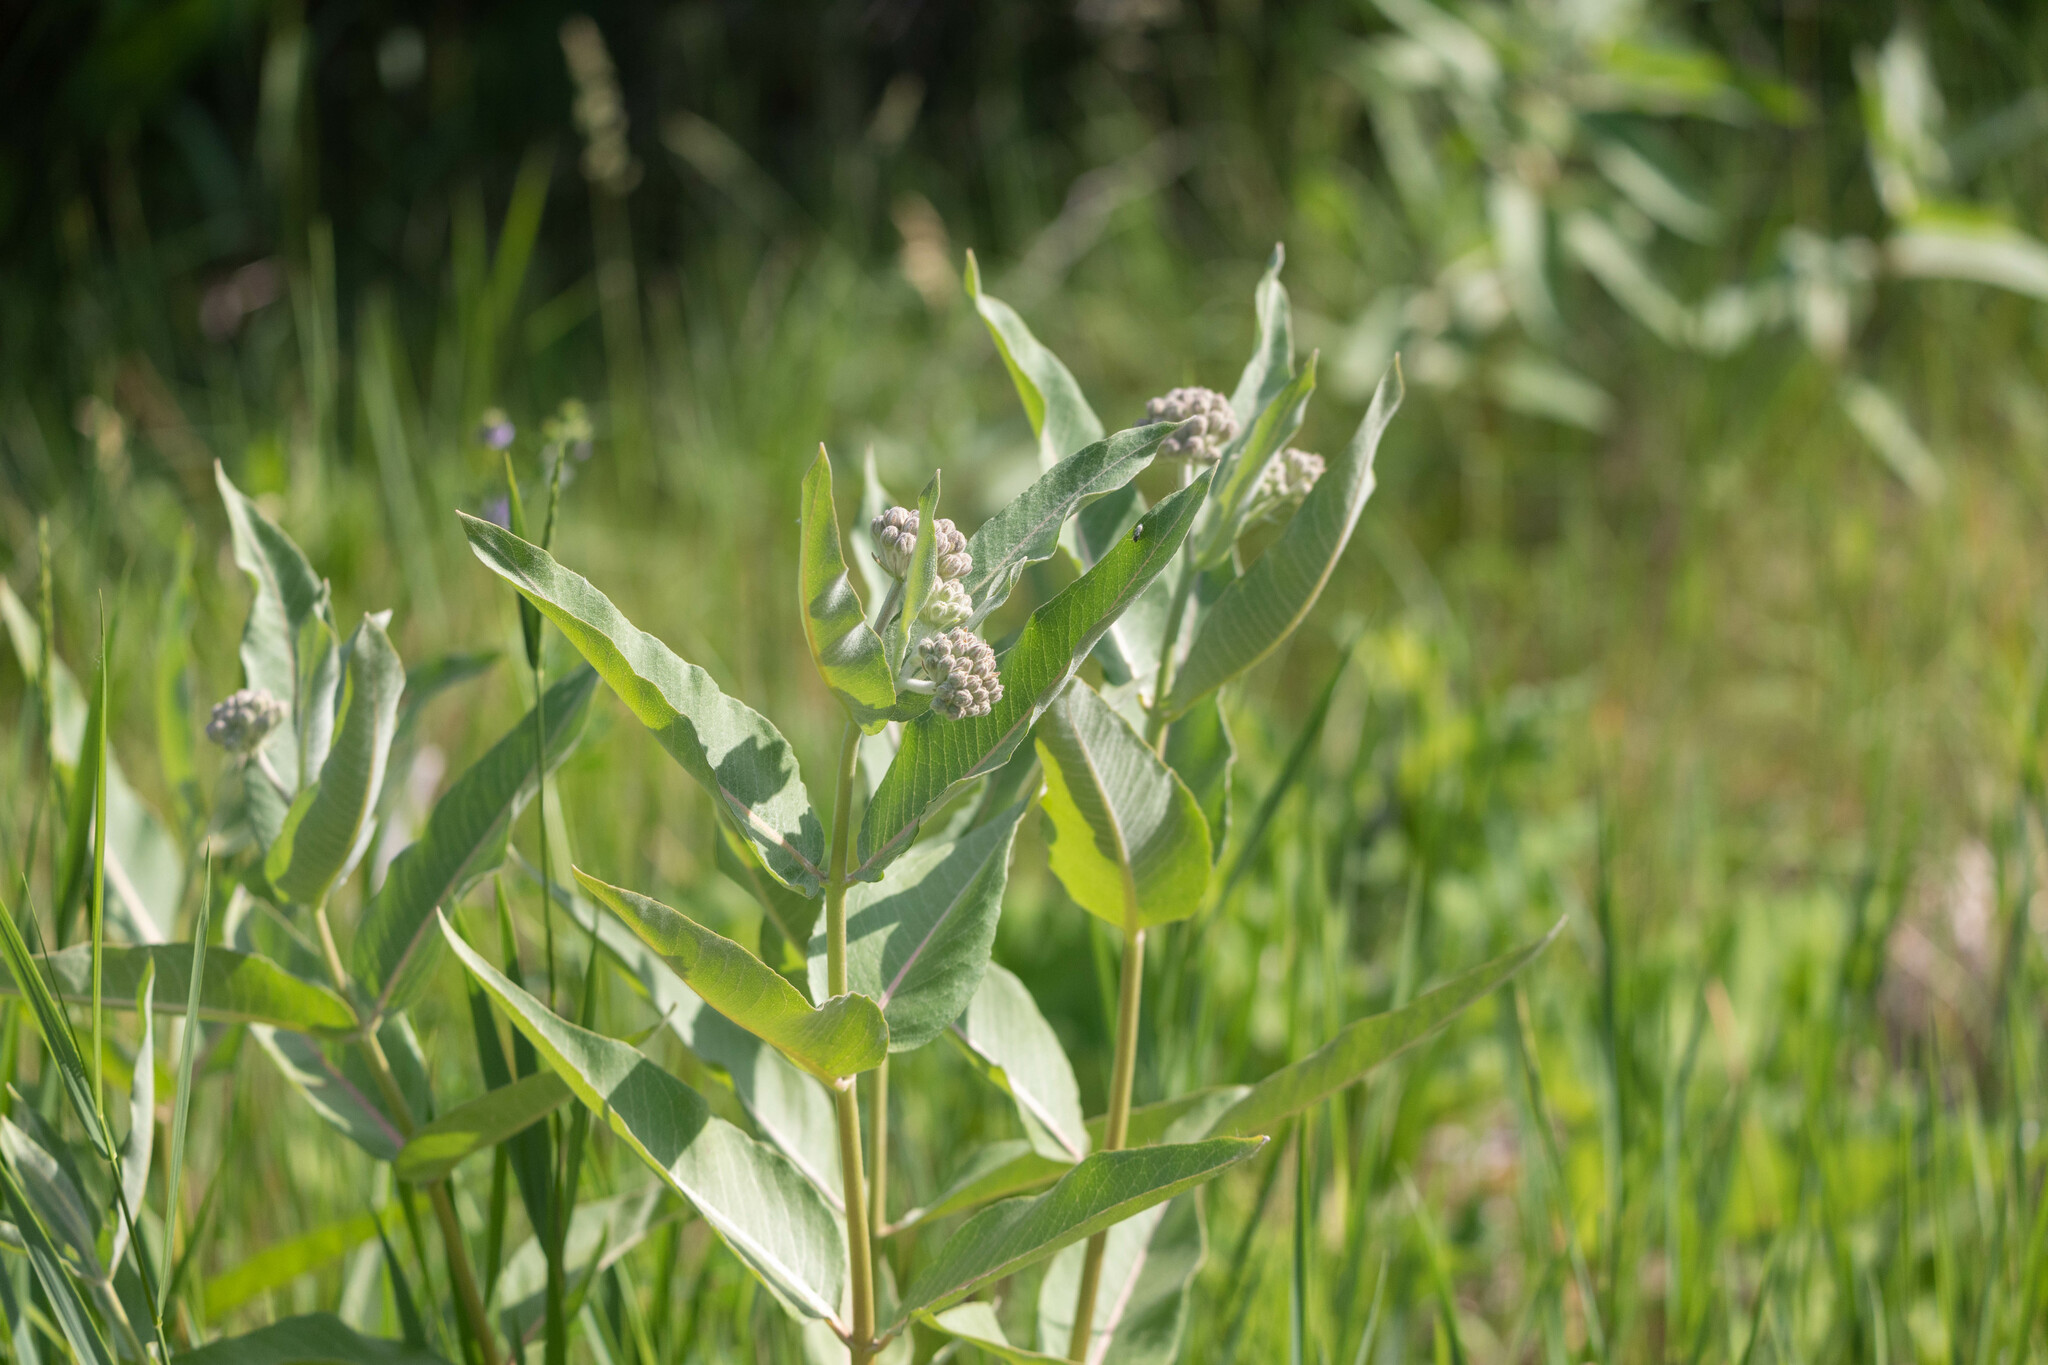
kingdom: Plantae
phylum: Tracheophyta
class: Magnoliopsida
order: Gentianales
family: Apocynaceae
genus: Asclepias
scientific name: Asclepias speciosa
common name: Showy milkweed
